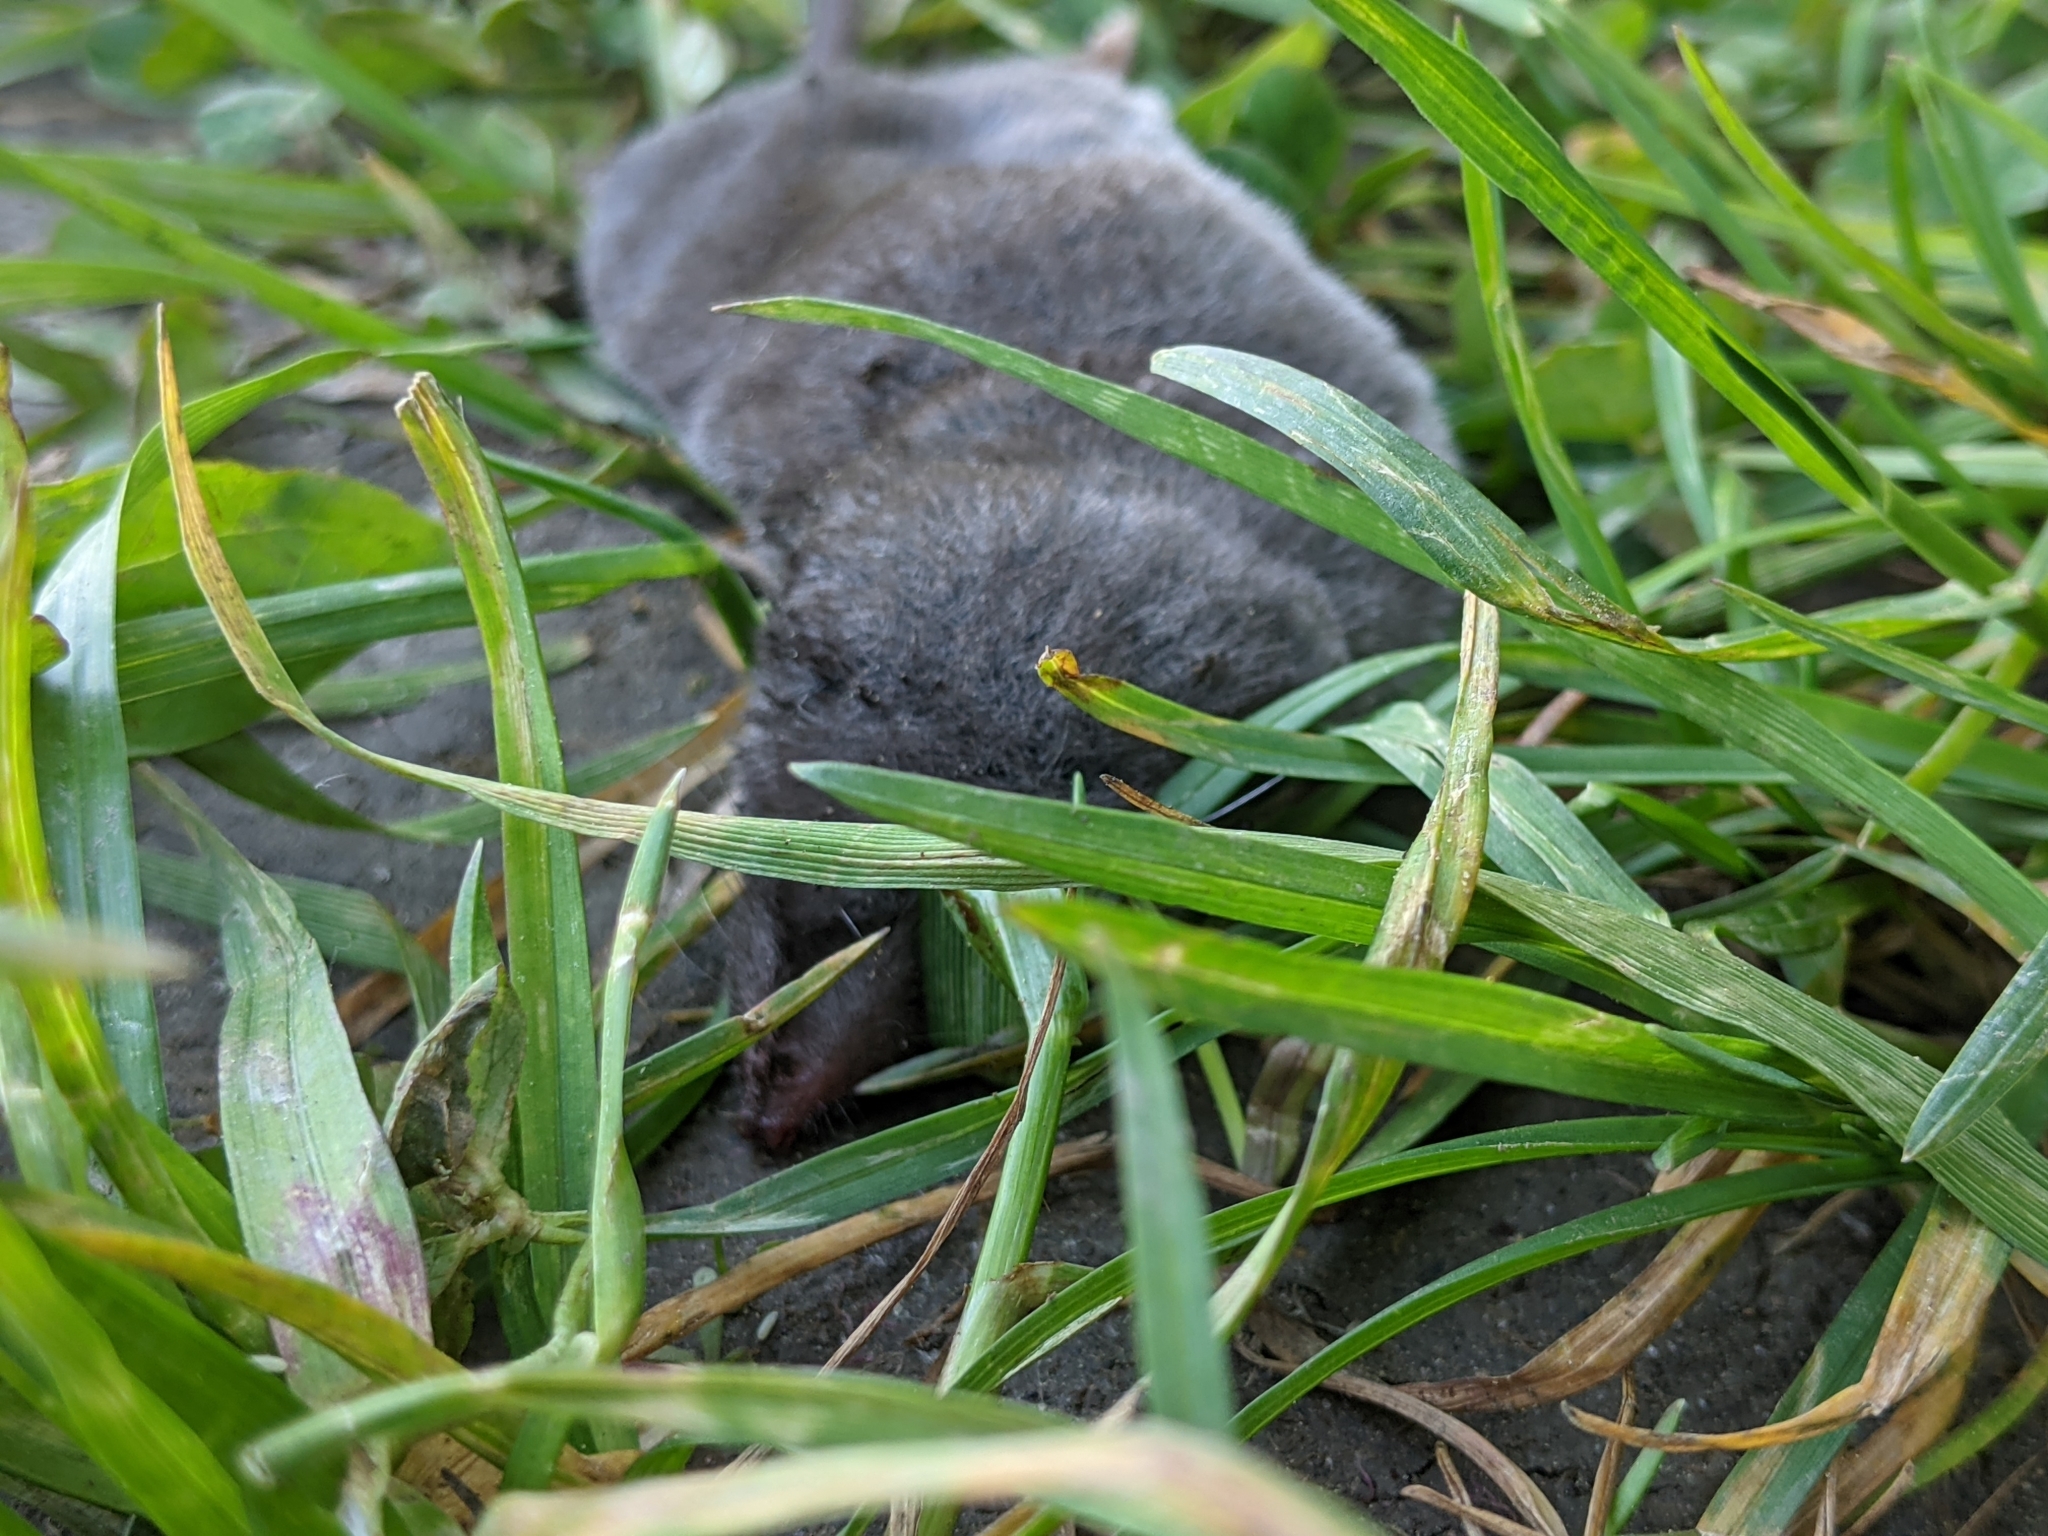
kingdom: Animalia
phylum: Chordata
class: Mammalia
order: Soricomorpha
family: Soricidae
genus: Blarina
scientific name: Blarina brevicauda
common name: Northern short-tailed shrew
